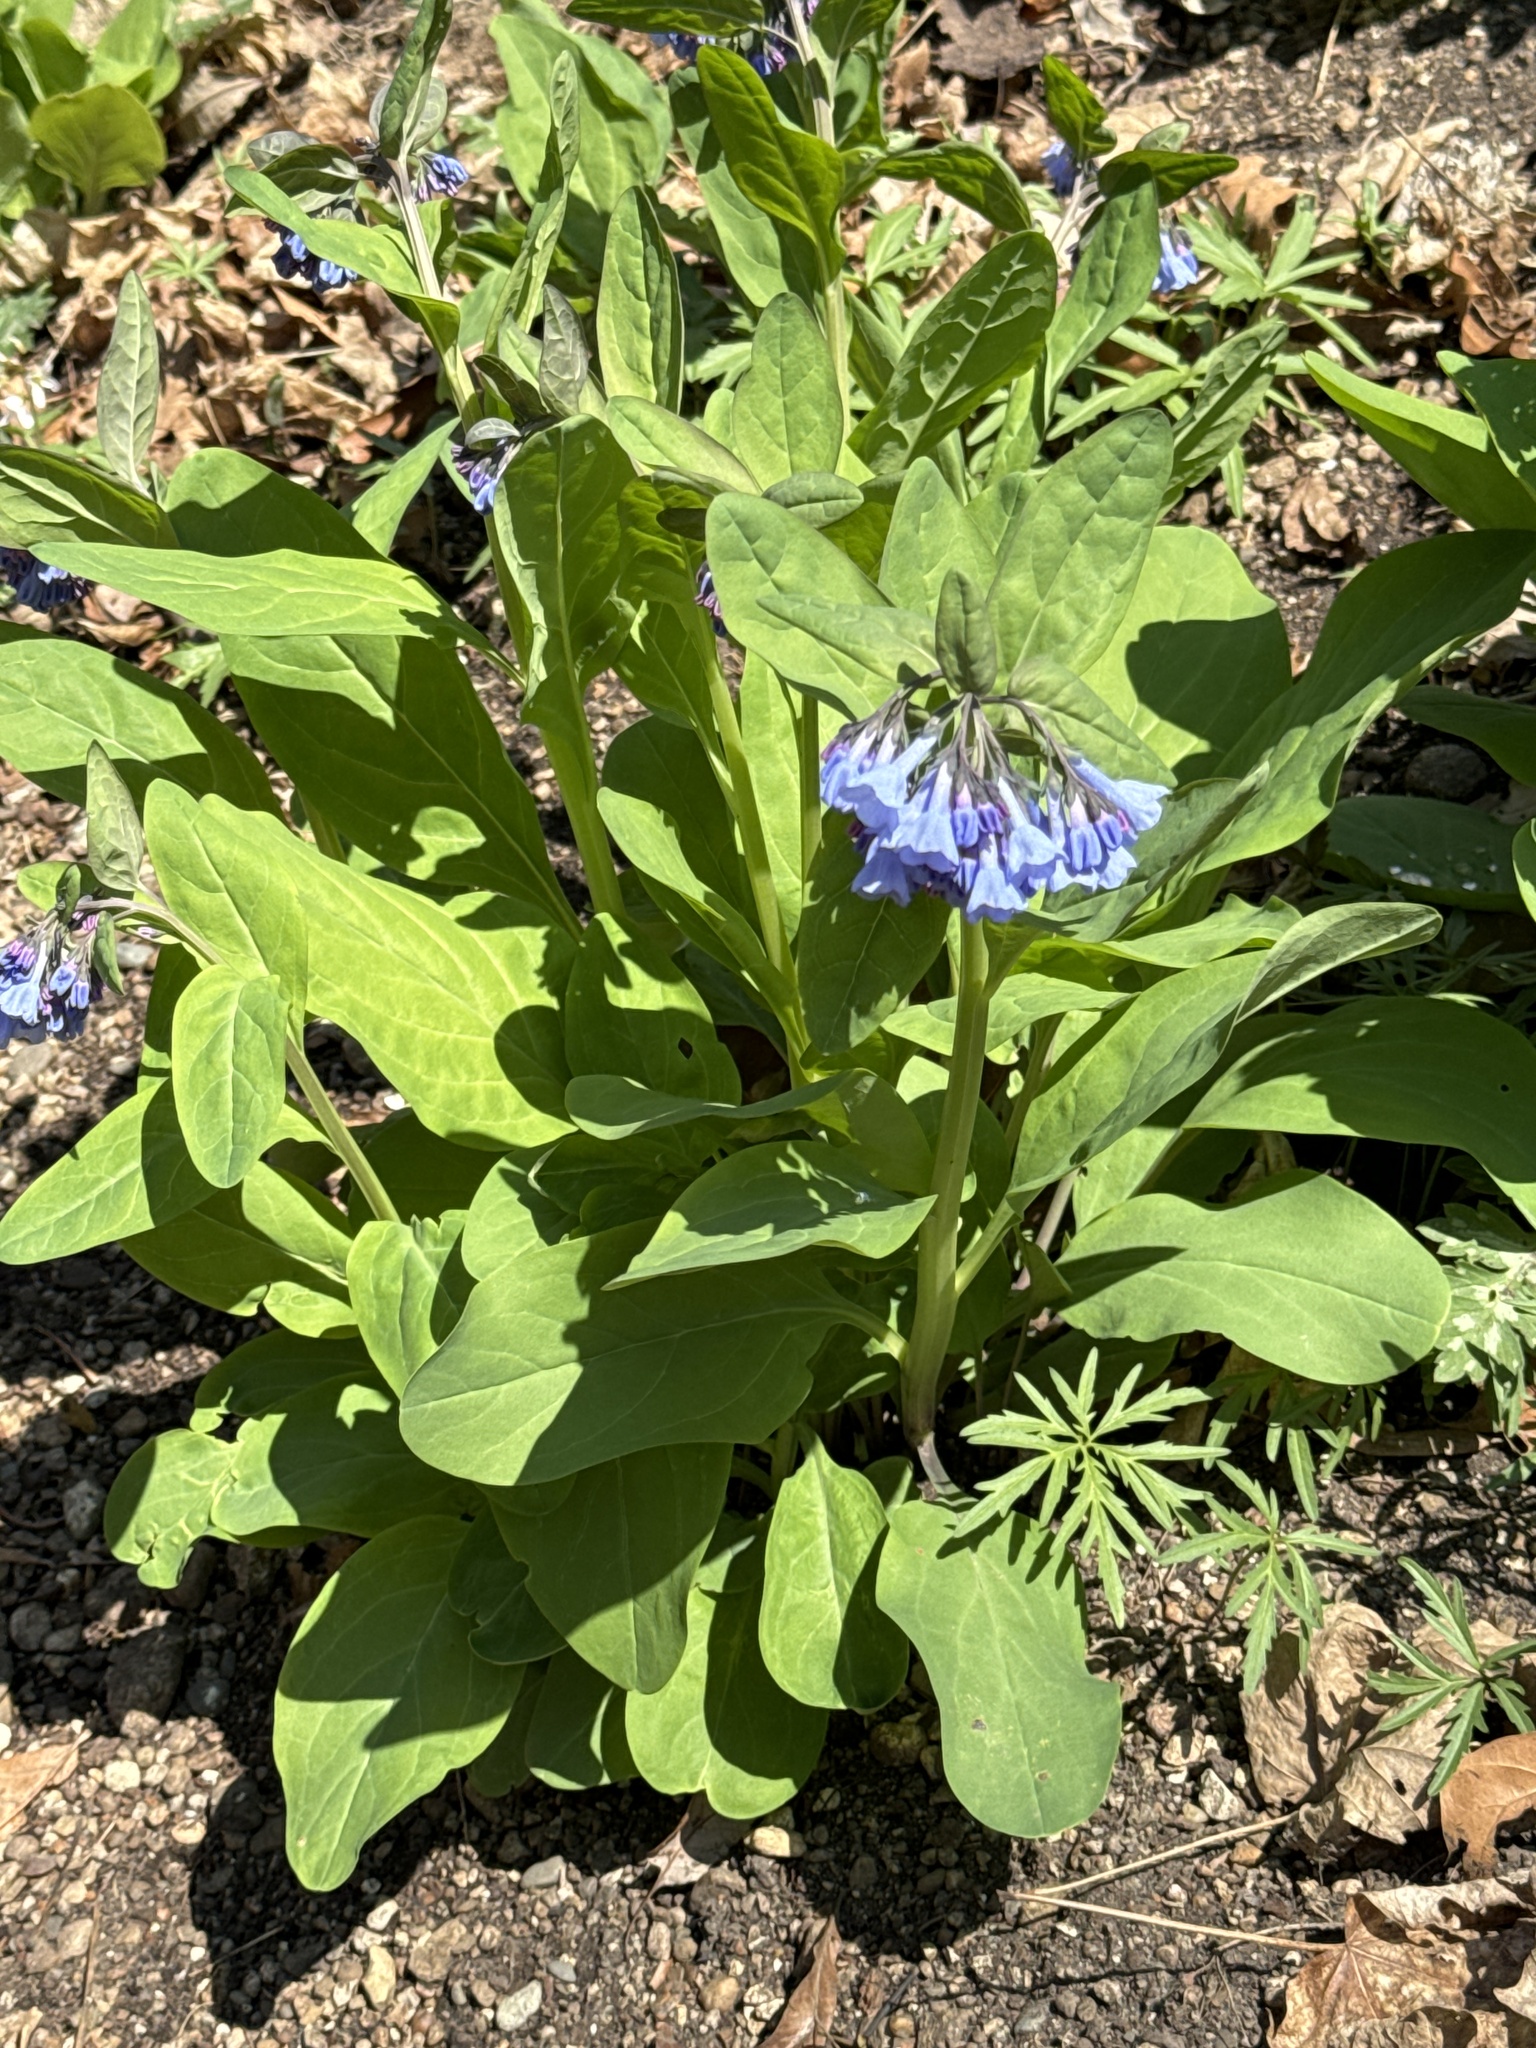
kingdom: Plantae
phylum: Tracheophyta
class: Magnoliopsida
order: Boraginales
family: Boraginaceae
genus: Mertensia
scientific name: Mertensia virginica
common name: Virginia bluebells
